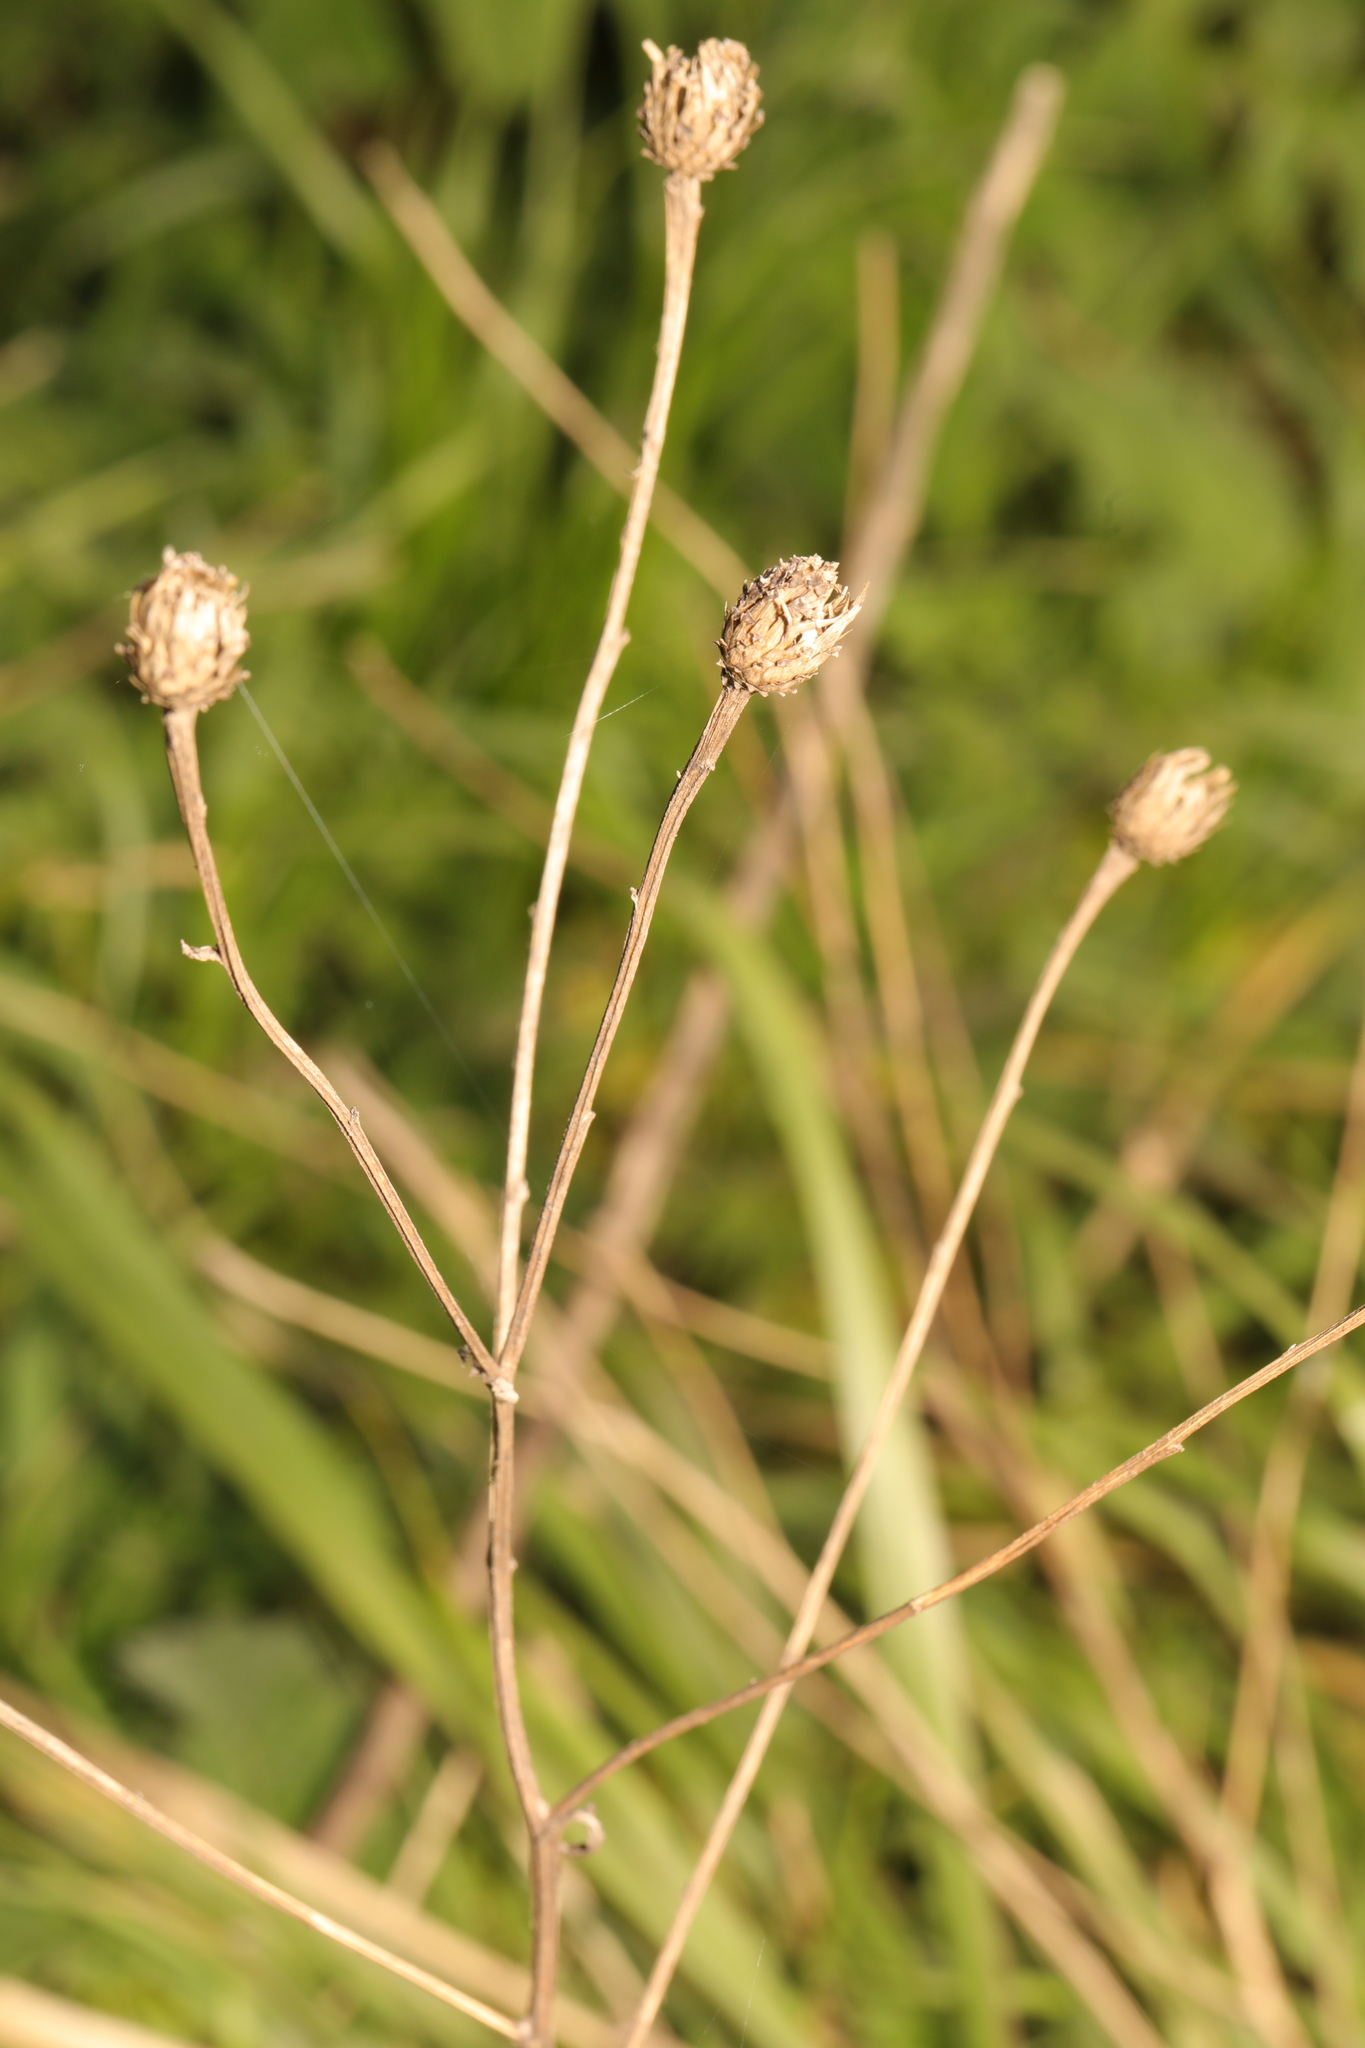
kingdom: Plantae
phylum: Tracheophyta
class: Magnoliopsida
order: Asterales
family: Asteraceae
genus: Centaurea
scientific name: Centaurea nigra
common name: Lesser knapweed
